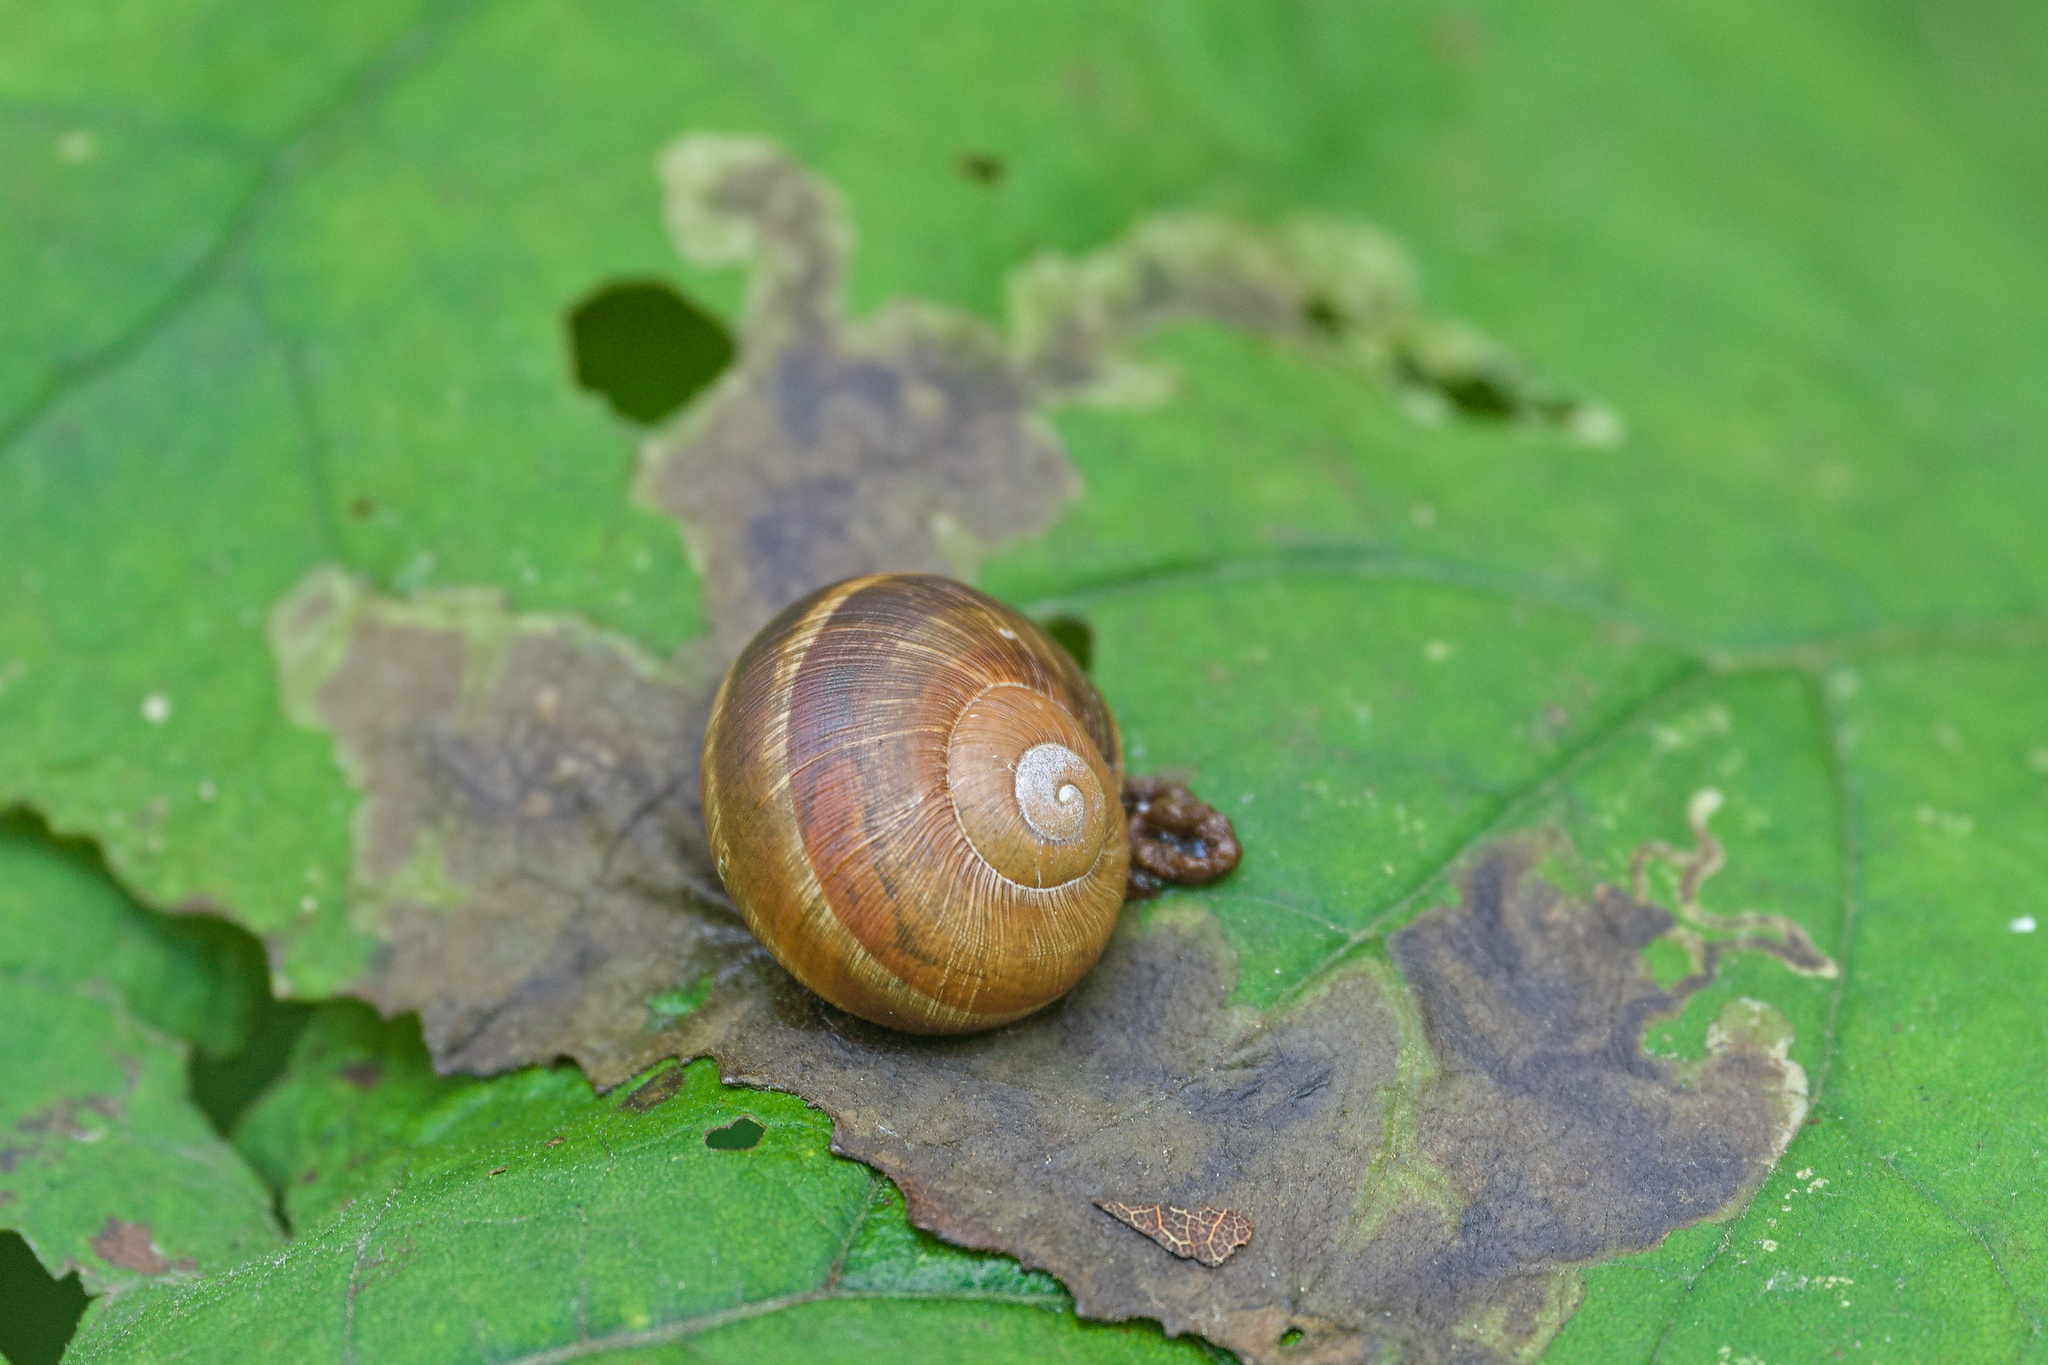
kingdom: Animalia
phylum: Mollusca
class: Gastropoda
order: Stylommatophora
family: Helicidae
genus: Helix
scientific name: Helix pomatia
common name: Roman snail
